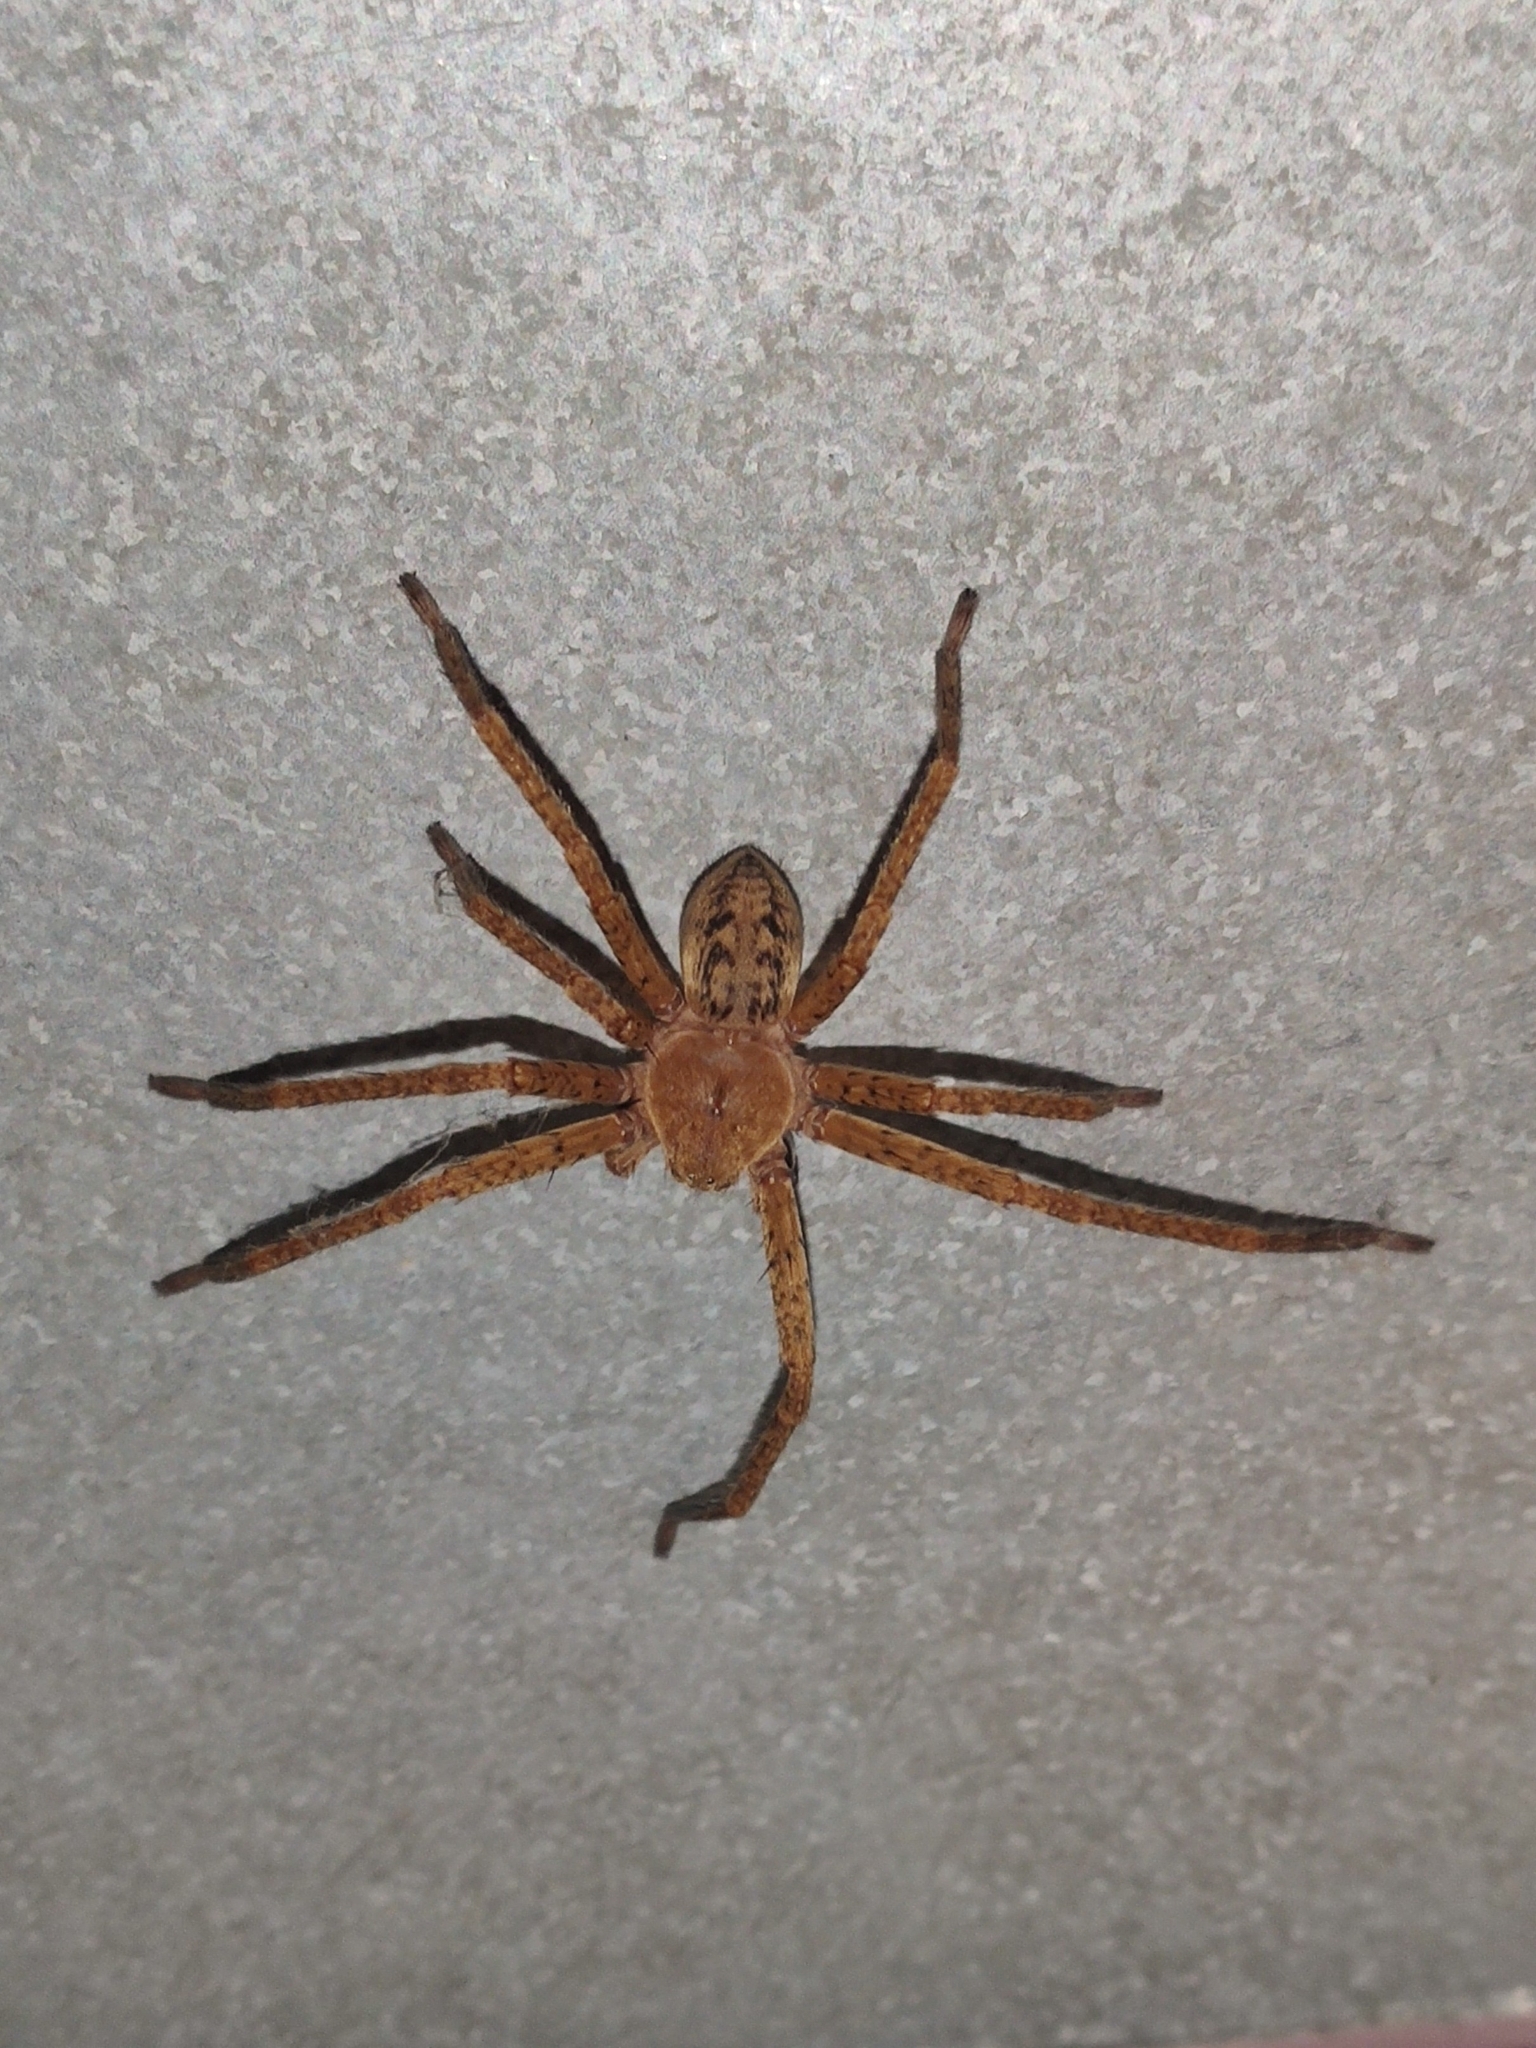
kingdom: Animalia
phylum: Arthropoda
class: Arachnida
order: Araneae
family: Sparassidae
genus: Olios
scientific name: Olios argelasius
